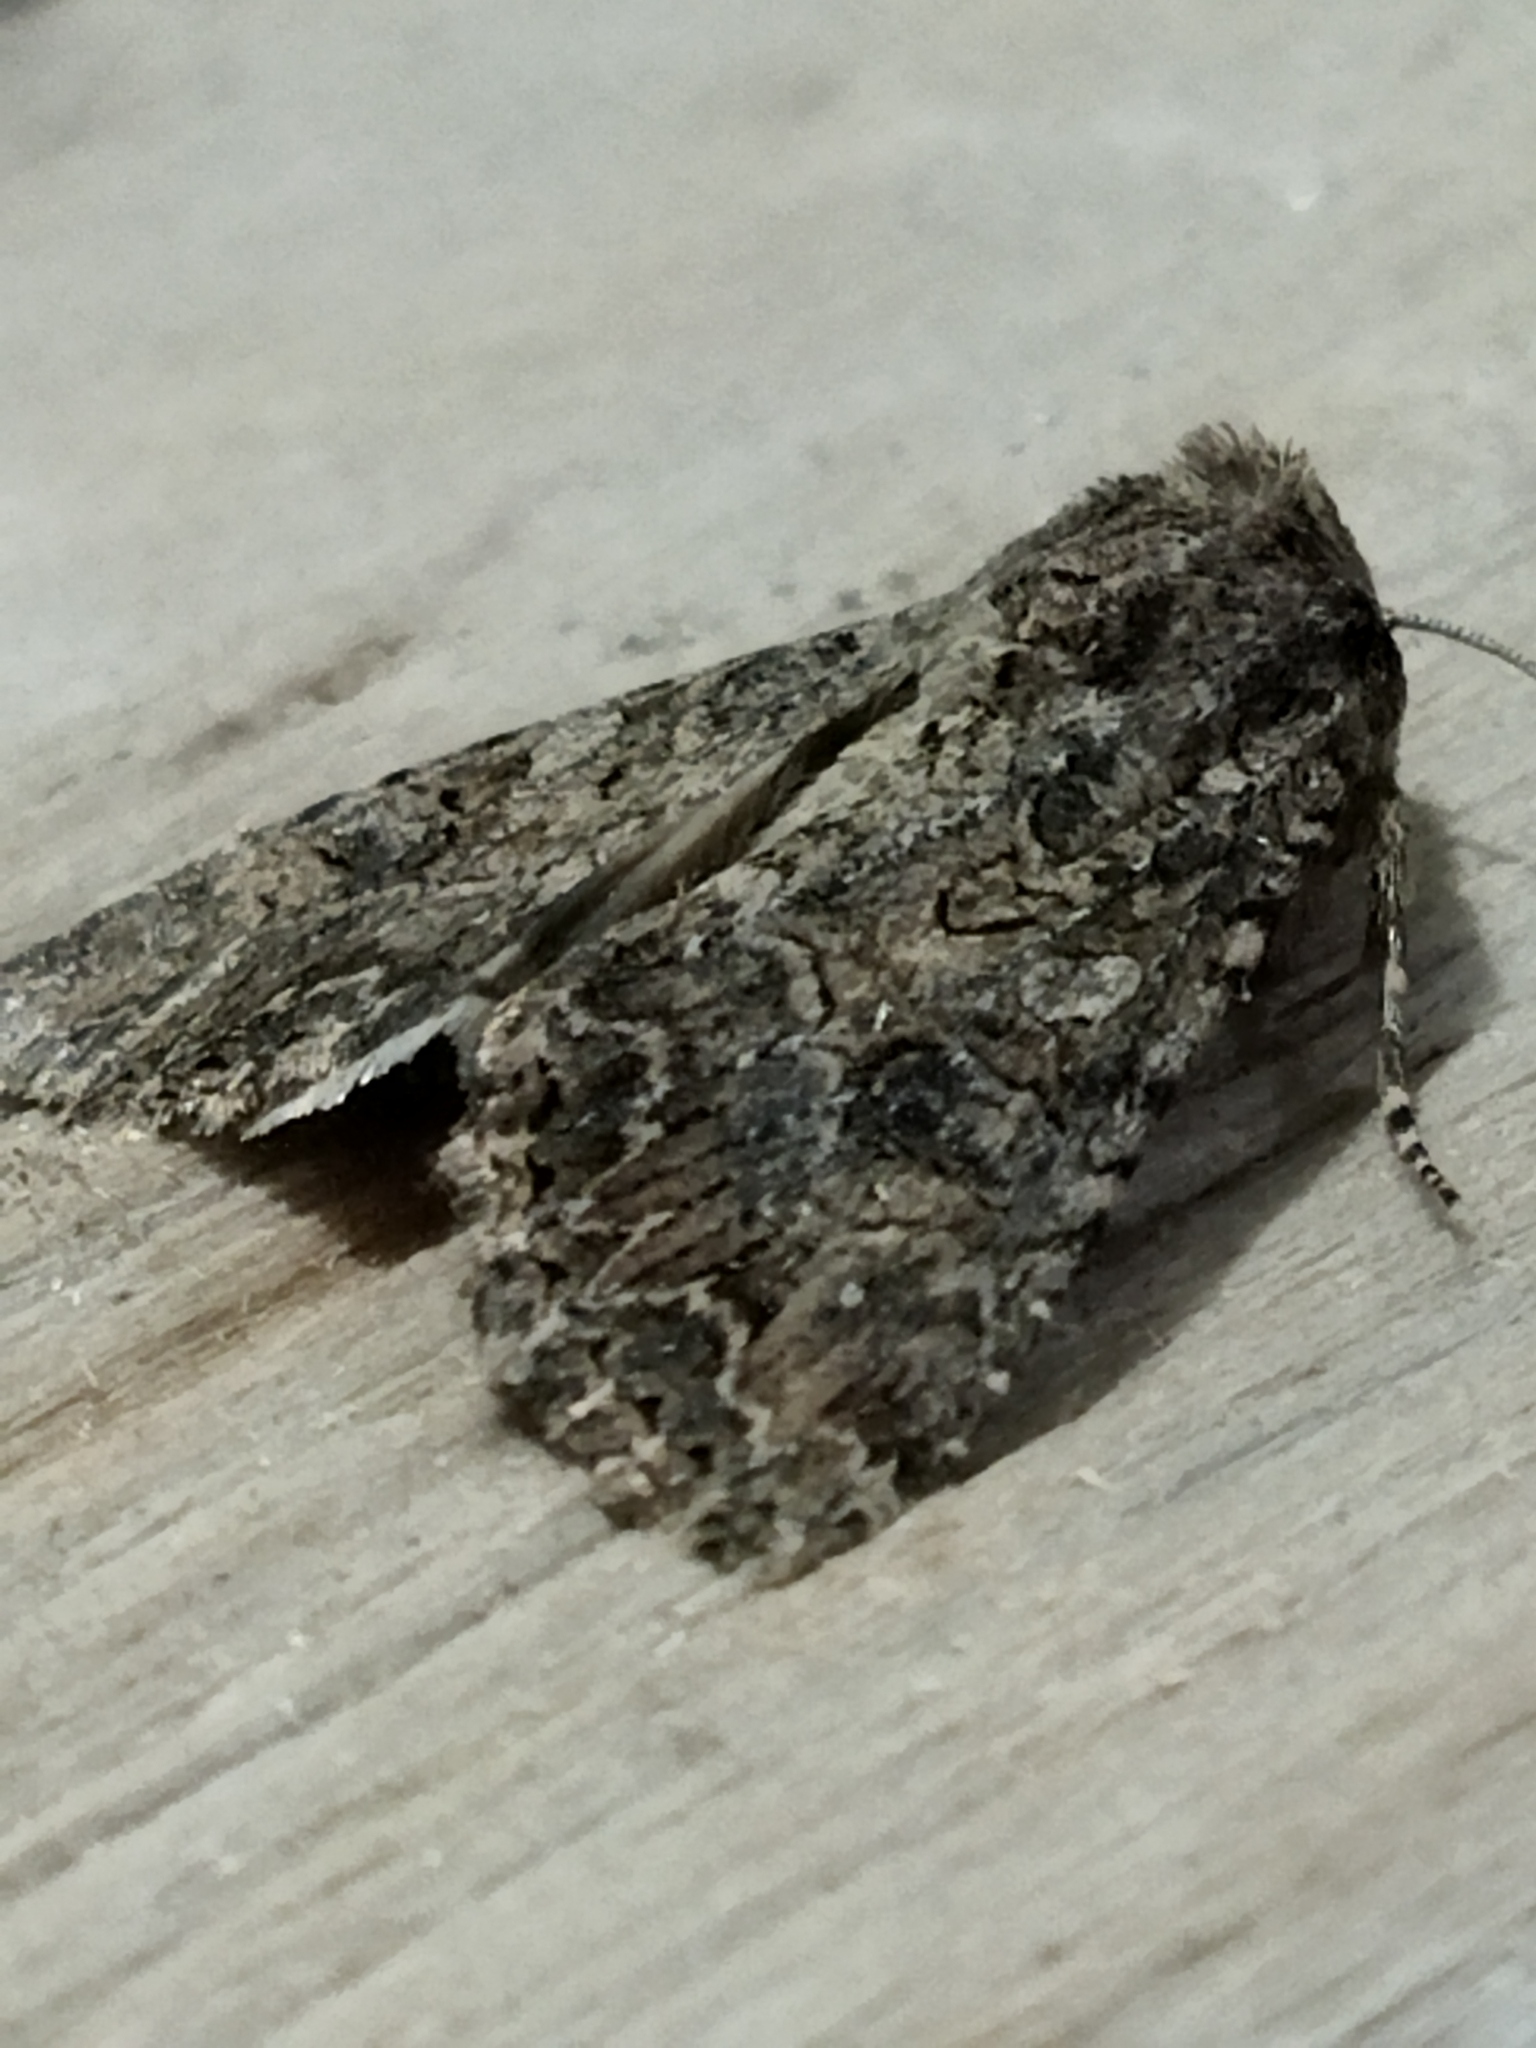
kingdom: Animalia
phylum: Arthropoda
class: Insecta
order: Lepidoptera
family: Noctuidae
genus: Anarta
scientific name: Anarta trifolii
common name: Clover cutworm moth
